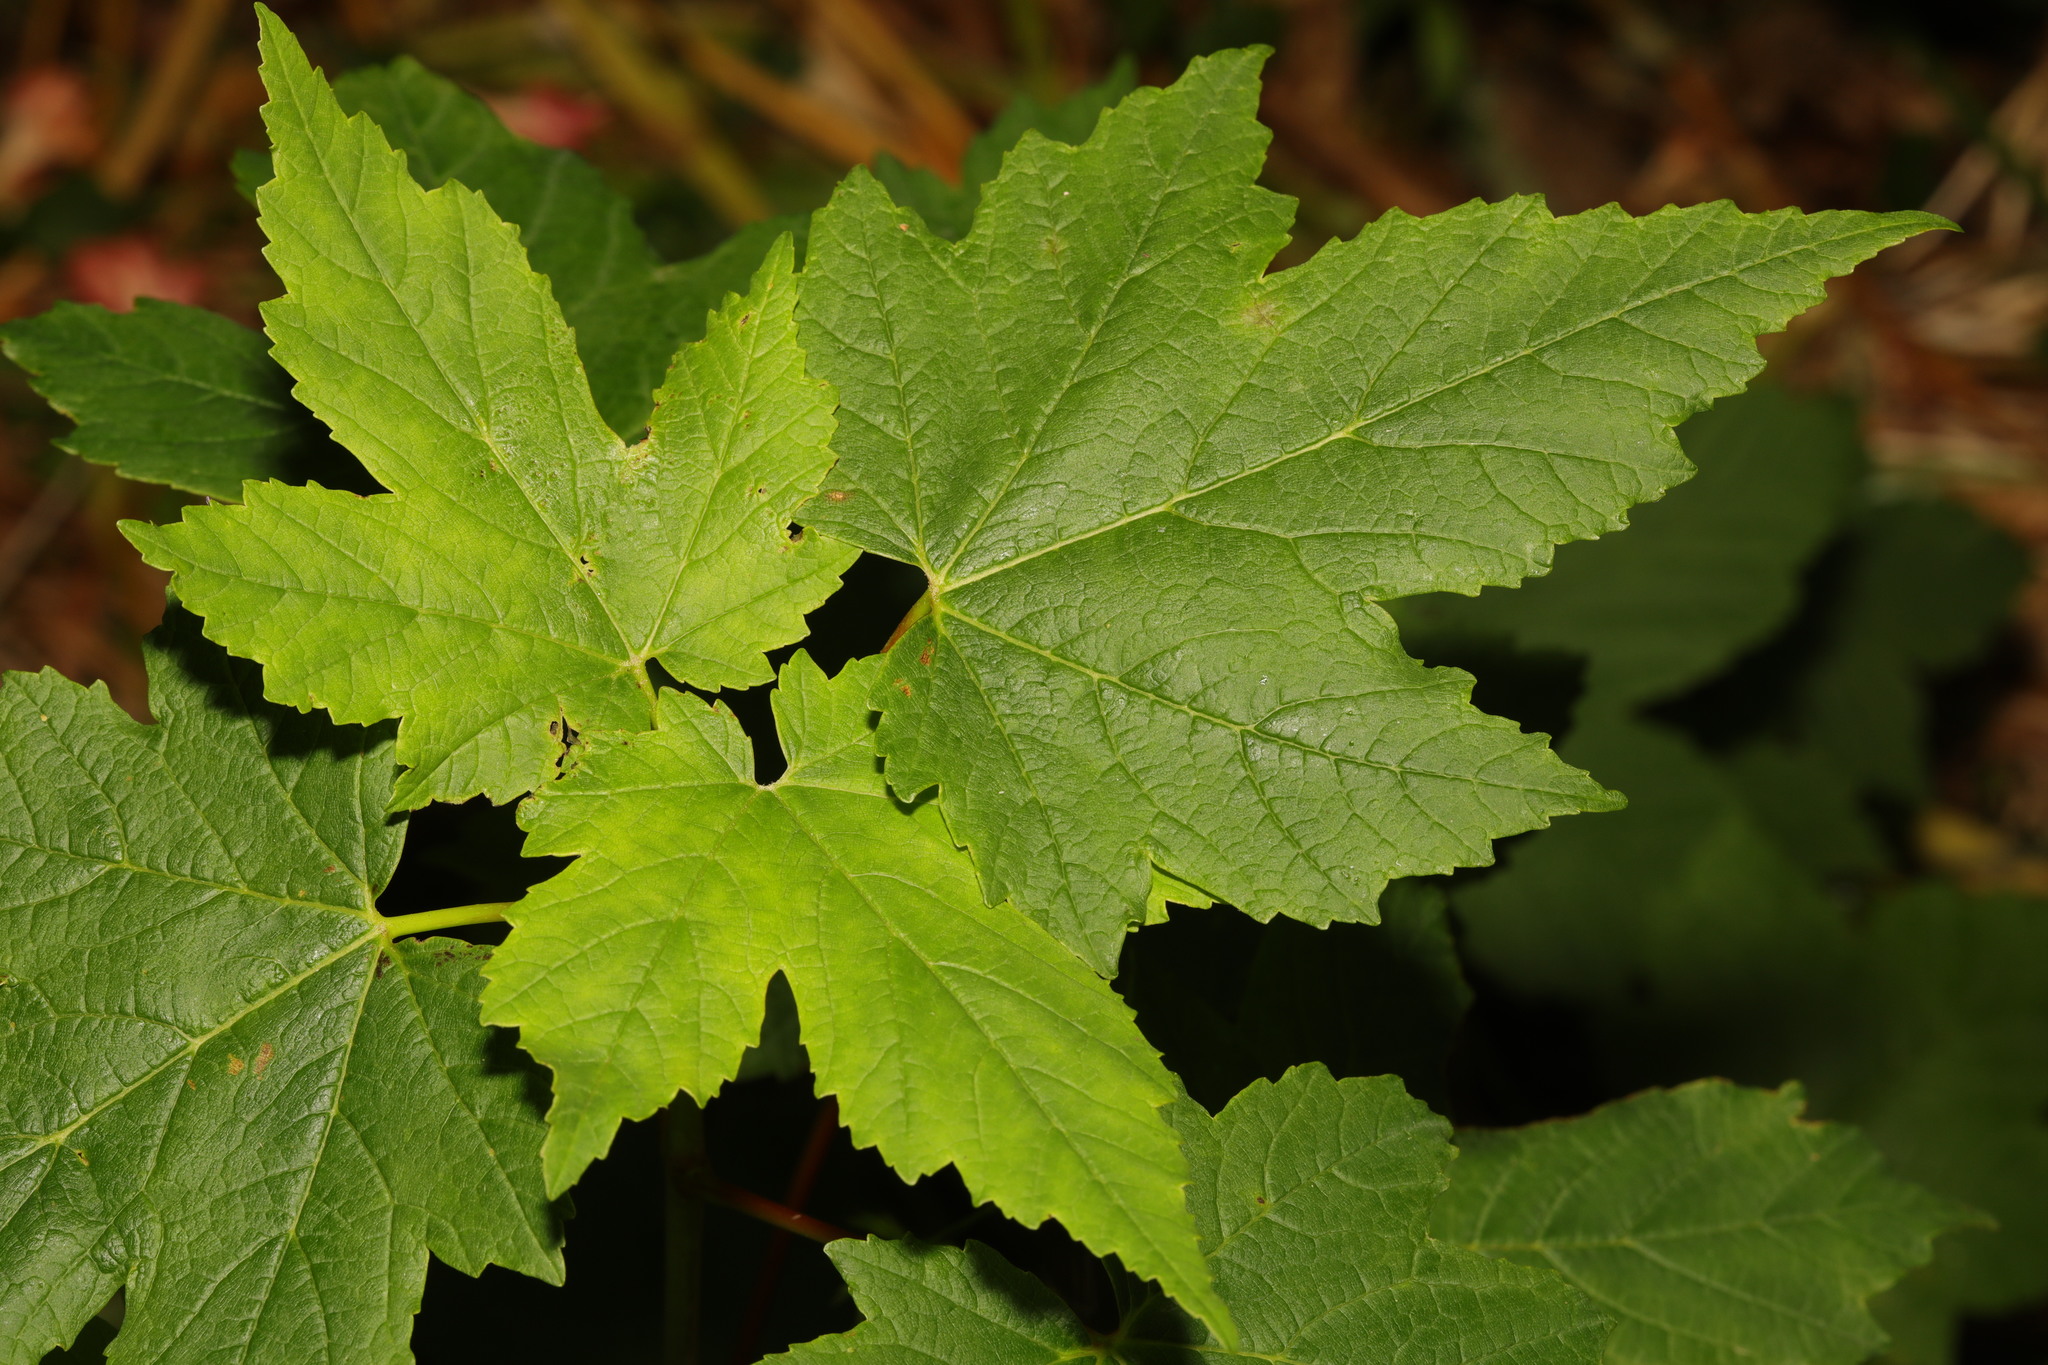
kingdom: Plantae
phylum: Tracheophyta
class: Magnoliopsida
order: Sapindales
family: Sapindaceae
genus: Acer
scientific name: Acer pseudoplatanus
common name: Sycamore
